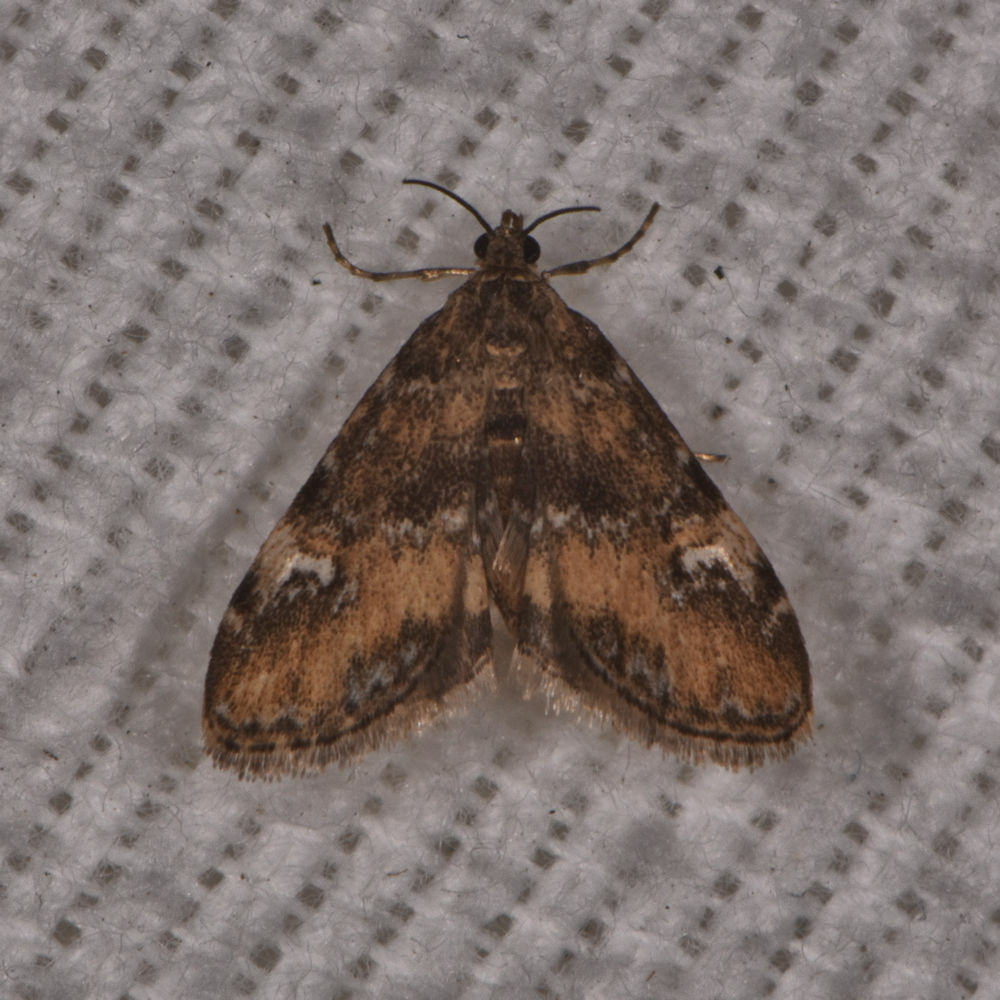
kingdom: Animalia
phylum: Arthropoda
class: Insecta
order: Lepidoptera
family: Crambidae
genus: Elophila
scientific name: Elophila obliteralis
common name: Waterlily leafcutter moth
